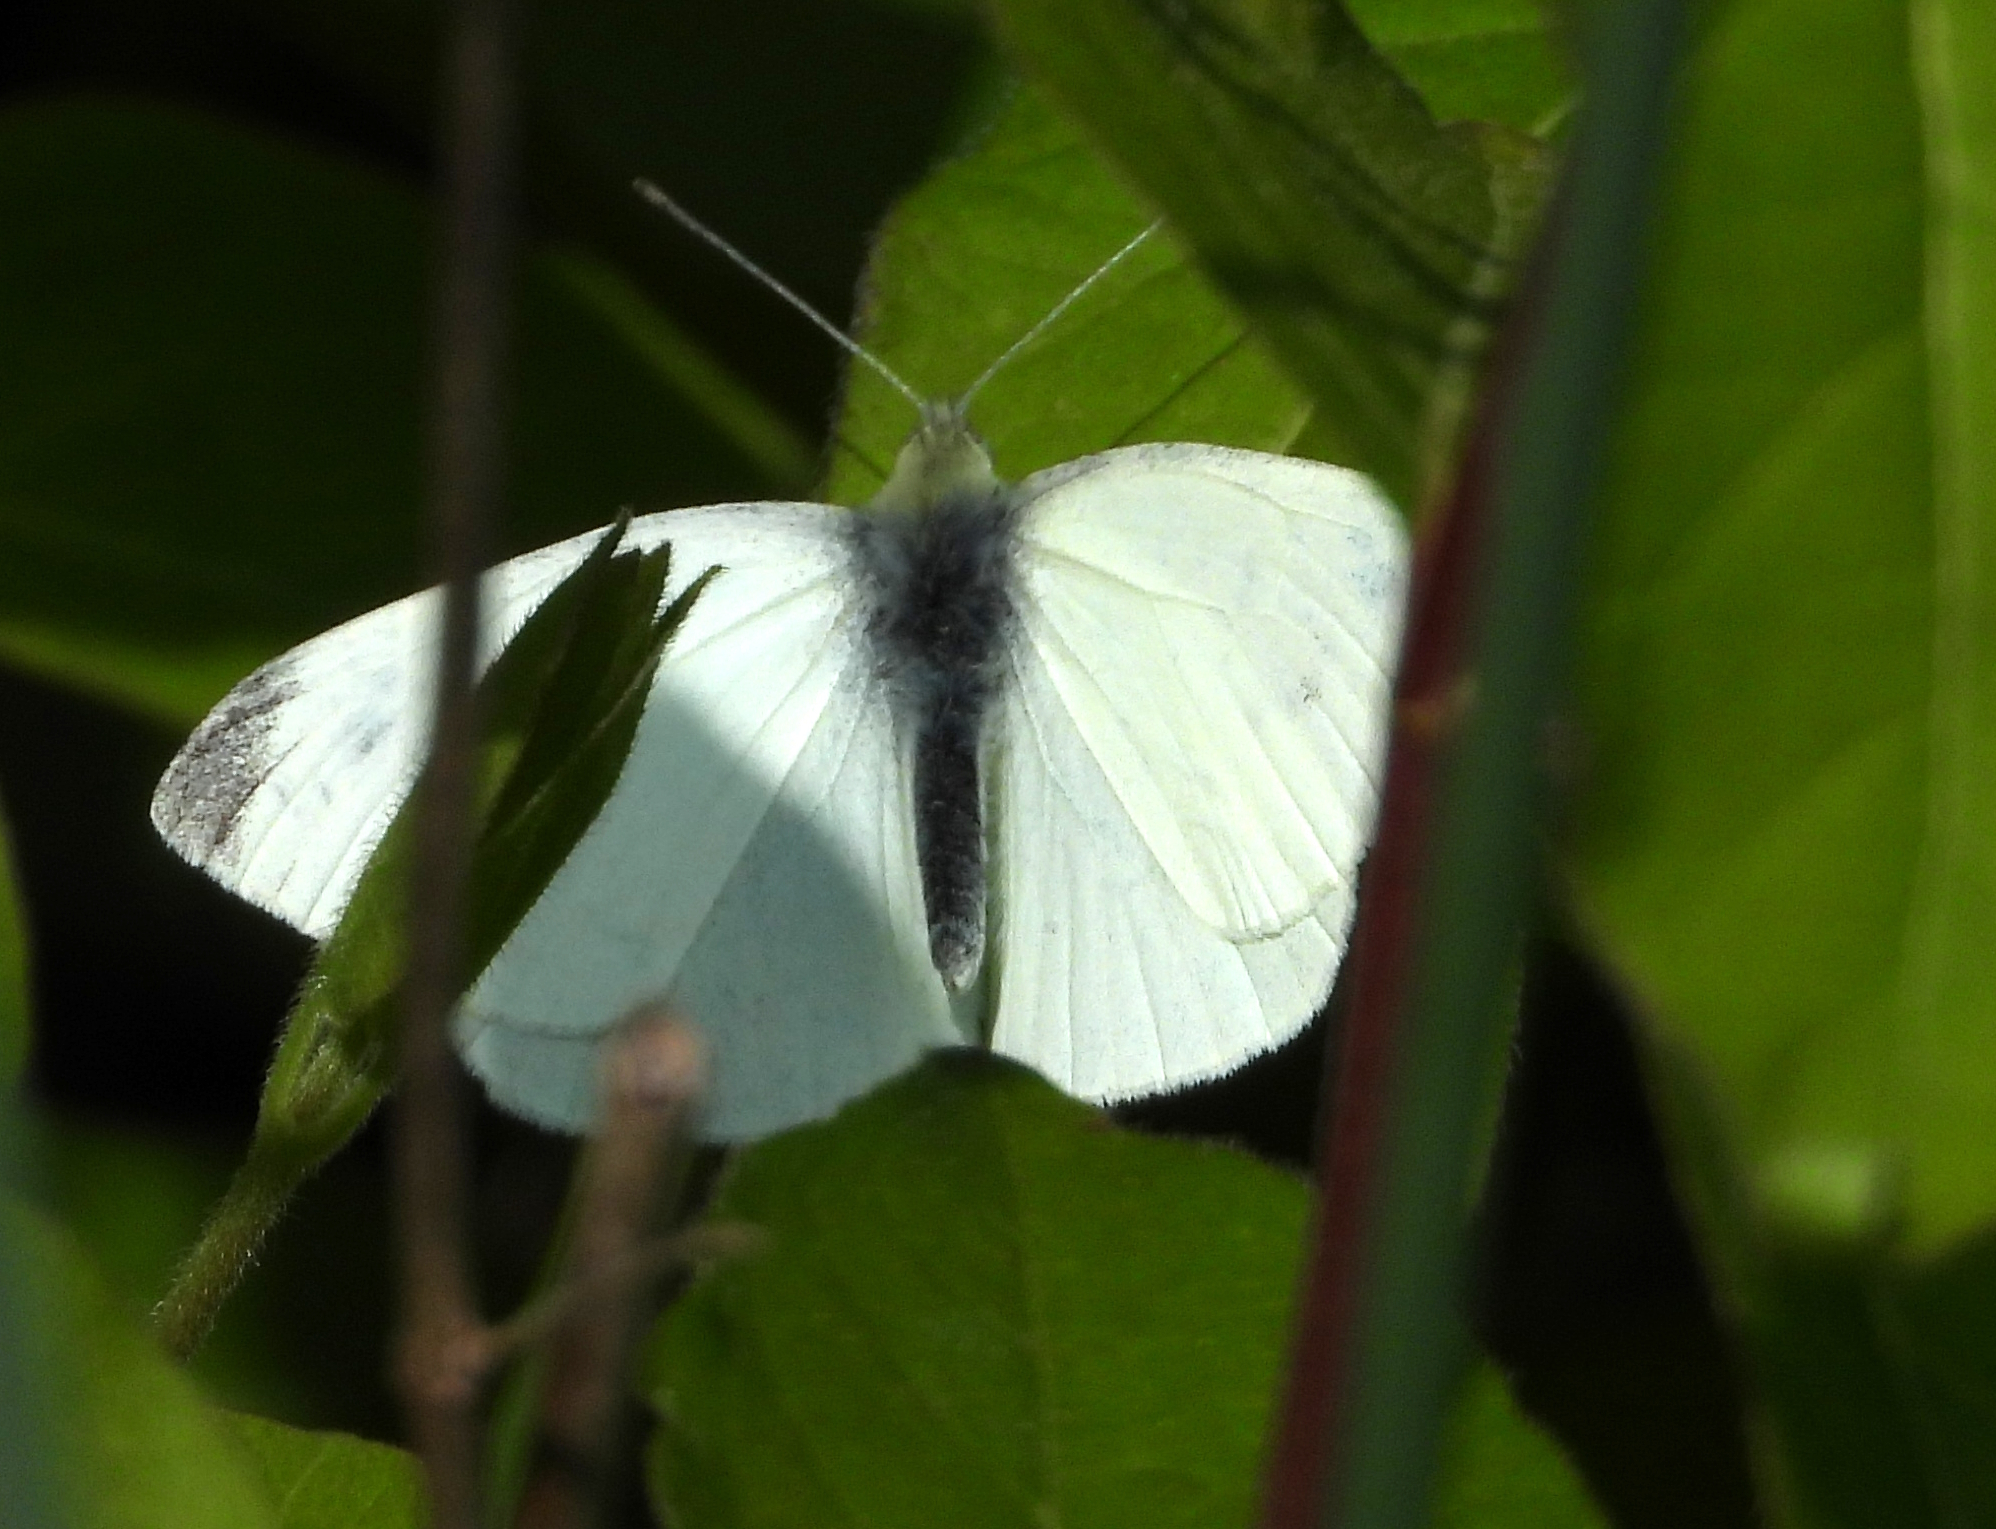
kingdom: Animalia
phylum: Arthropoda
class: Insecta
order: Lepidoptera
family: Pieridae
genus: Pieris
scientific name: Pieris rapae
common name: Small white
